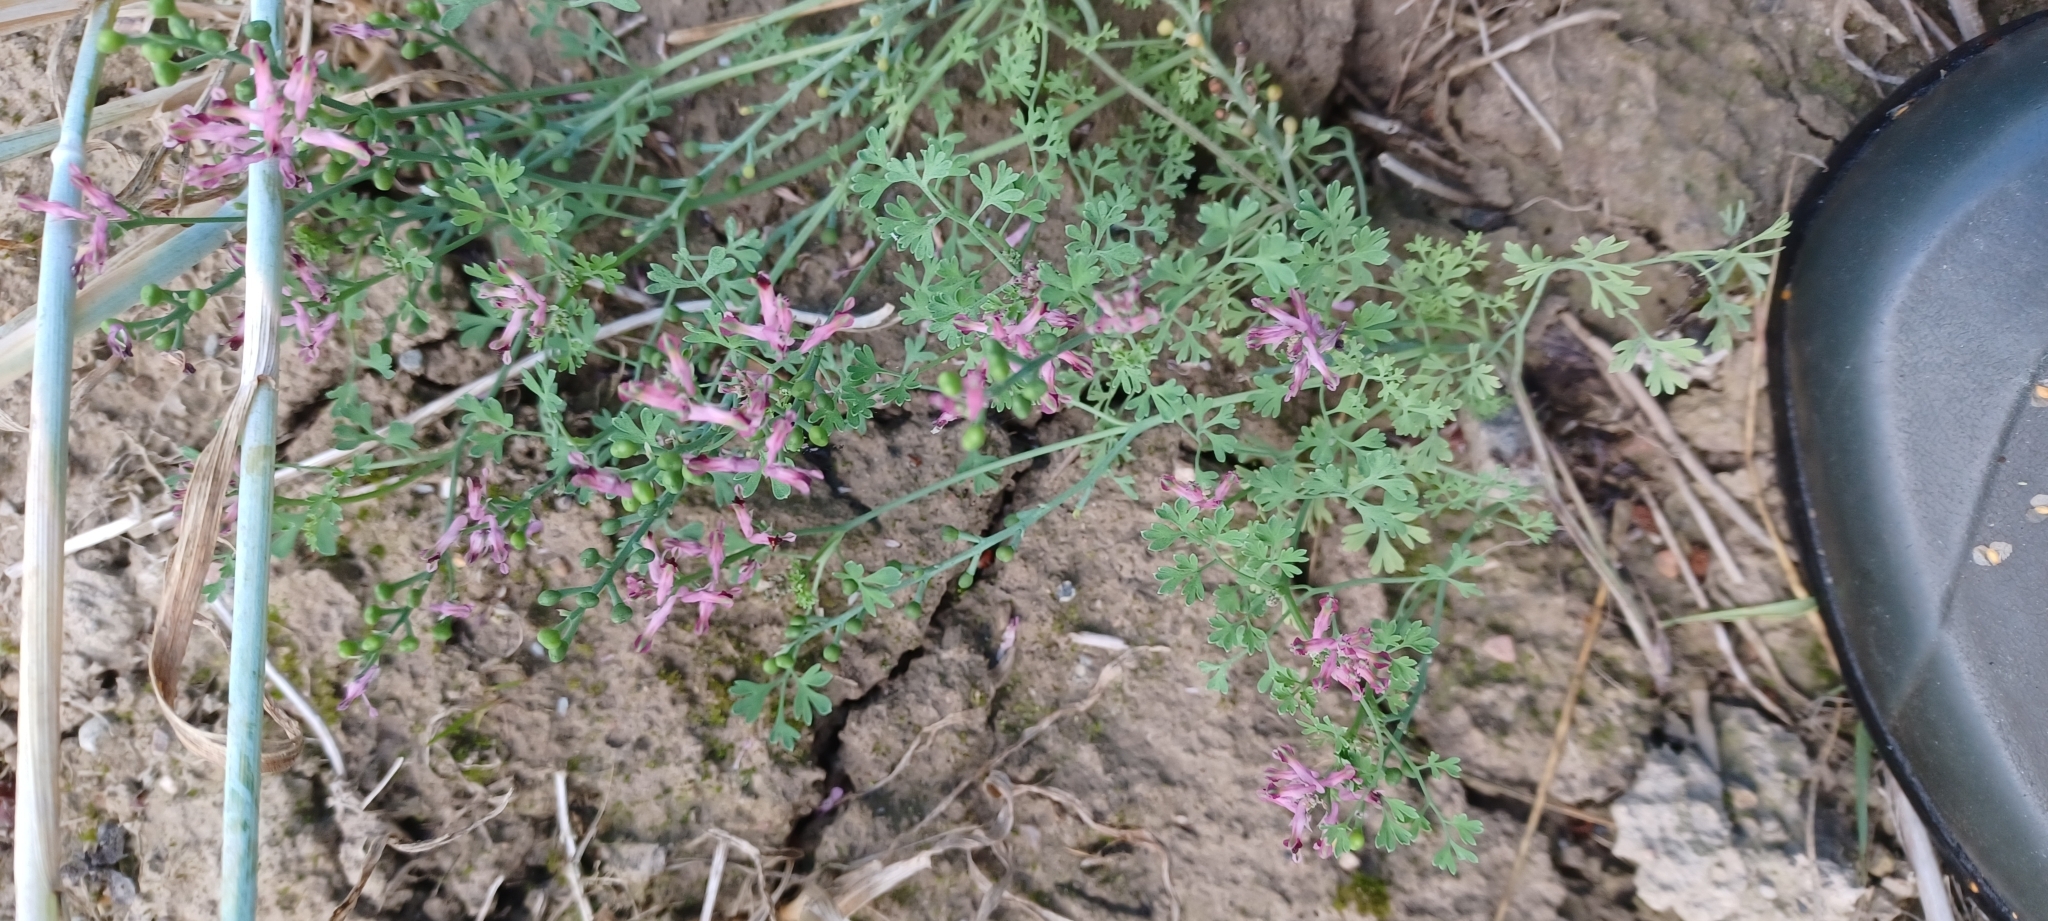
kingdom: Plantae
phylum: Tracheophyta
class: Magnoliopsida
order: Ranunculales
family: Papaveraceae
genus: Fumaria
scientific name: Fumaria officinalis
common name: Common fumitory
